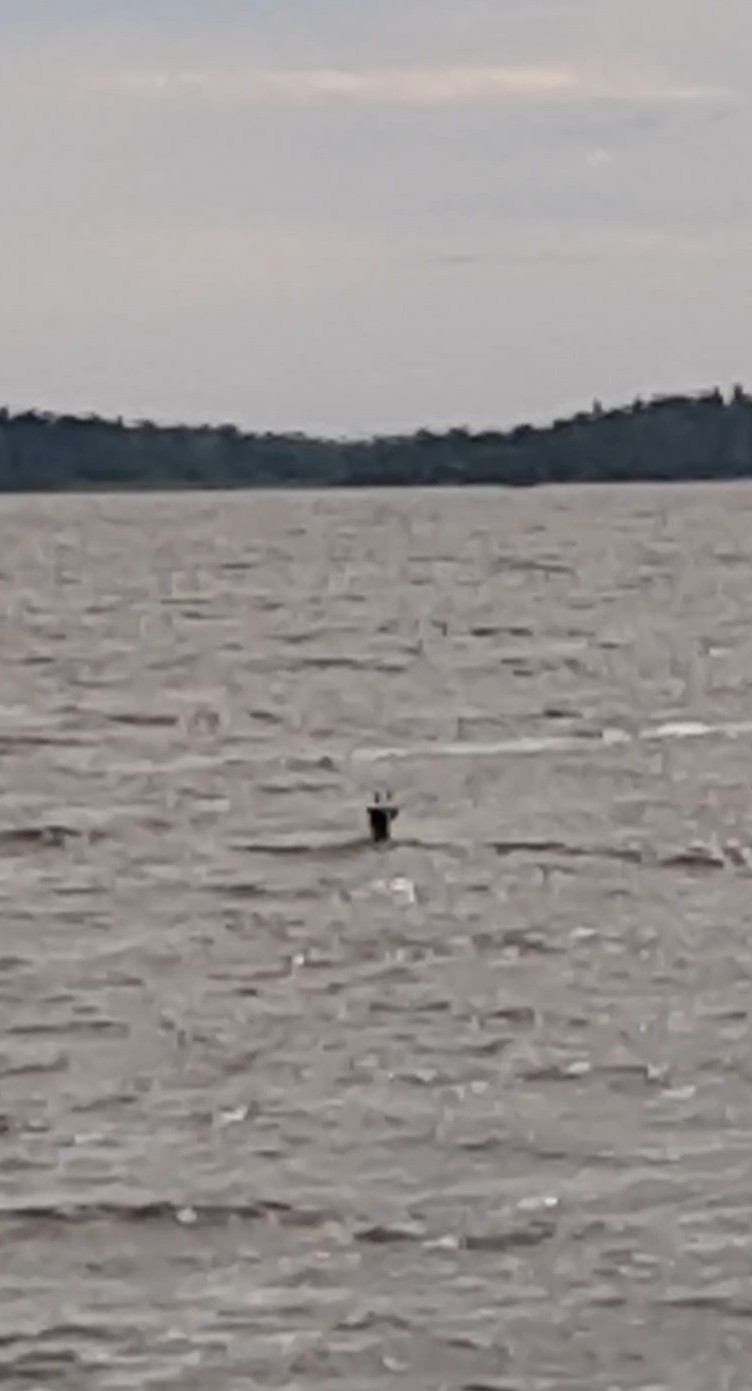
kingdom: Animalia
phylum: Chordata
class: Mammalia
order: Artiodactyla
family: Cervidae
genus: Capreolus
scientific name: Capreolus capreolus
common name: Western roe deer
